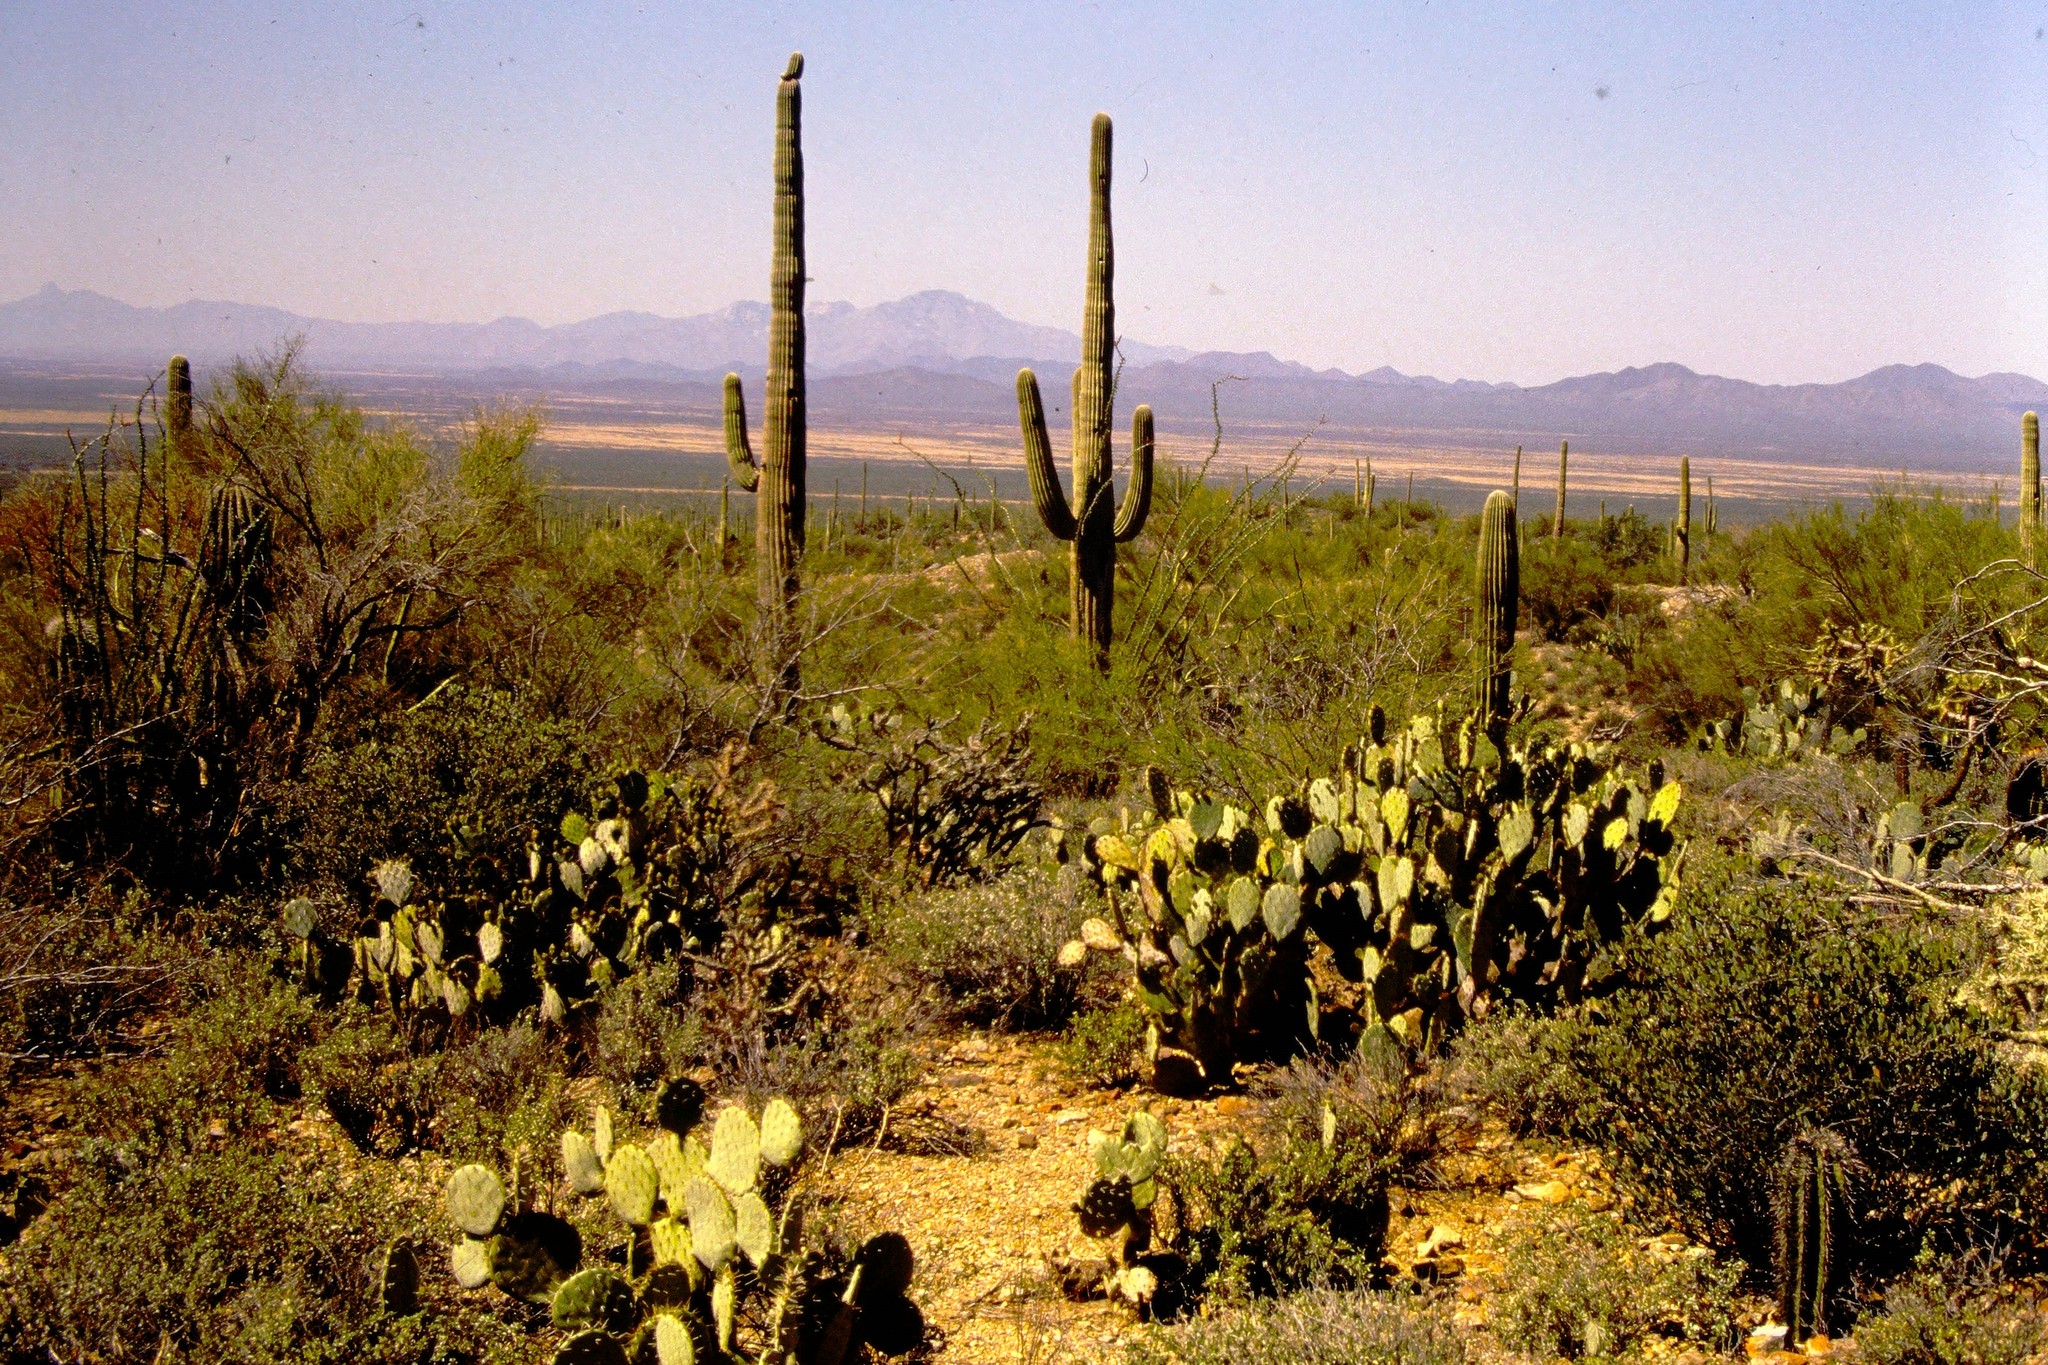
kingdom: Plantae
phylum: Tracheophyta
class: Magnoliopsida
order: Caryophyllales
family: Cactaceae
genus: Carnegiea
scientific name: Carnegiea gigantea
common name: Saguaro
